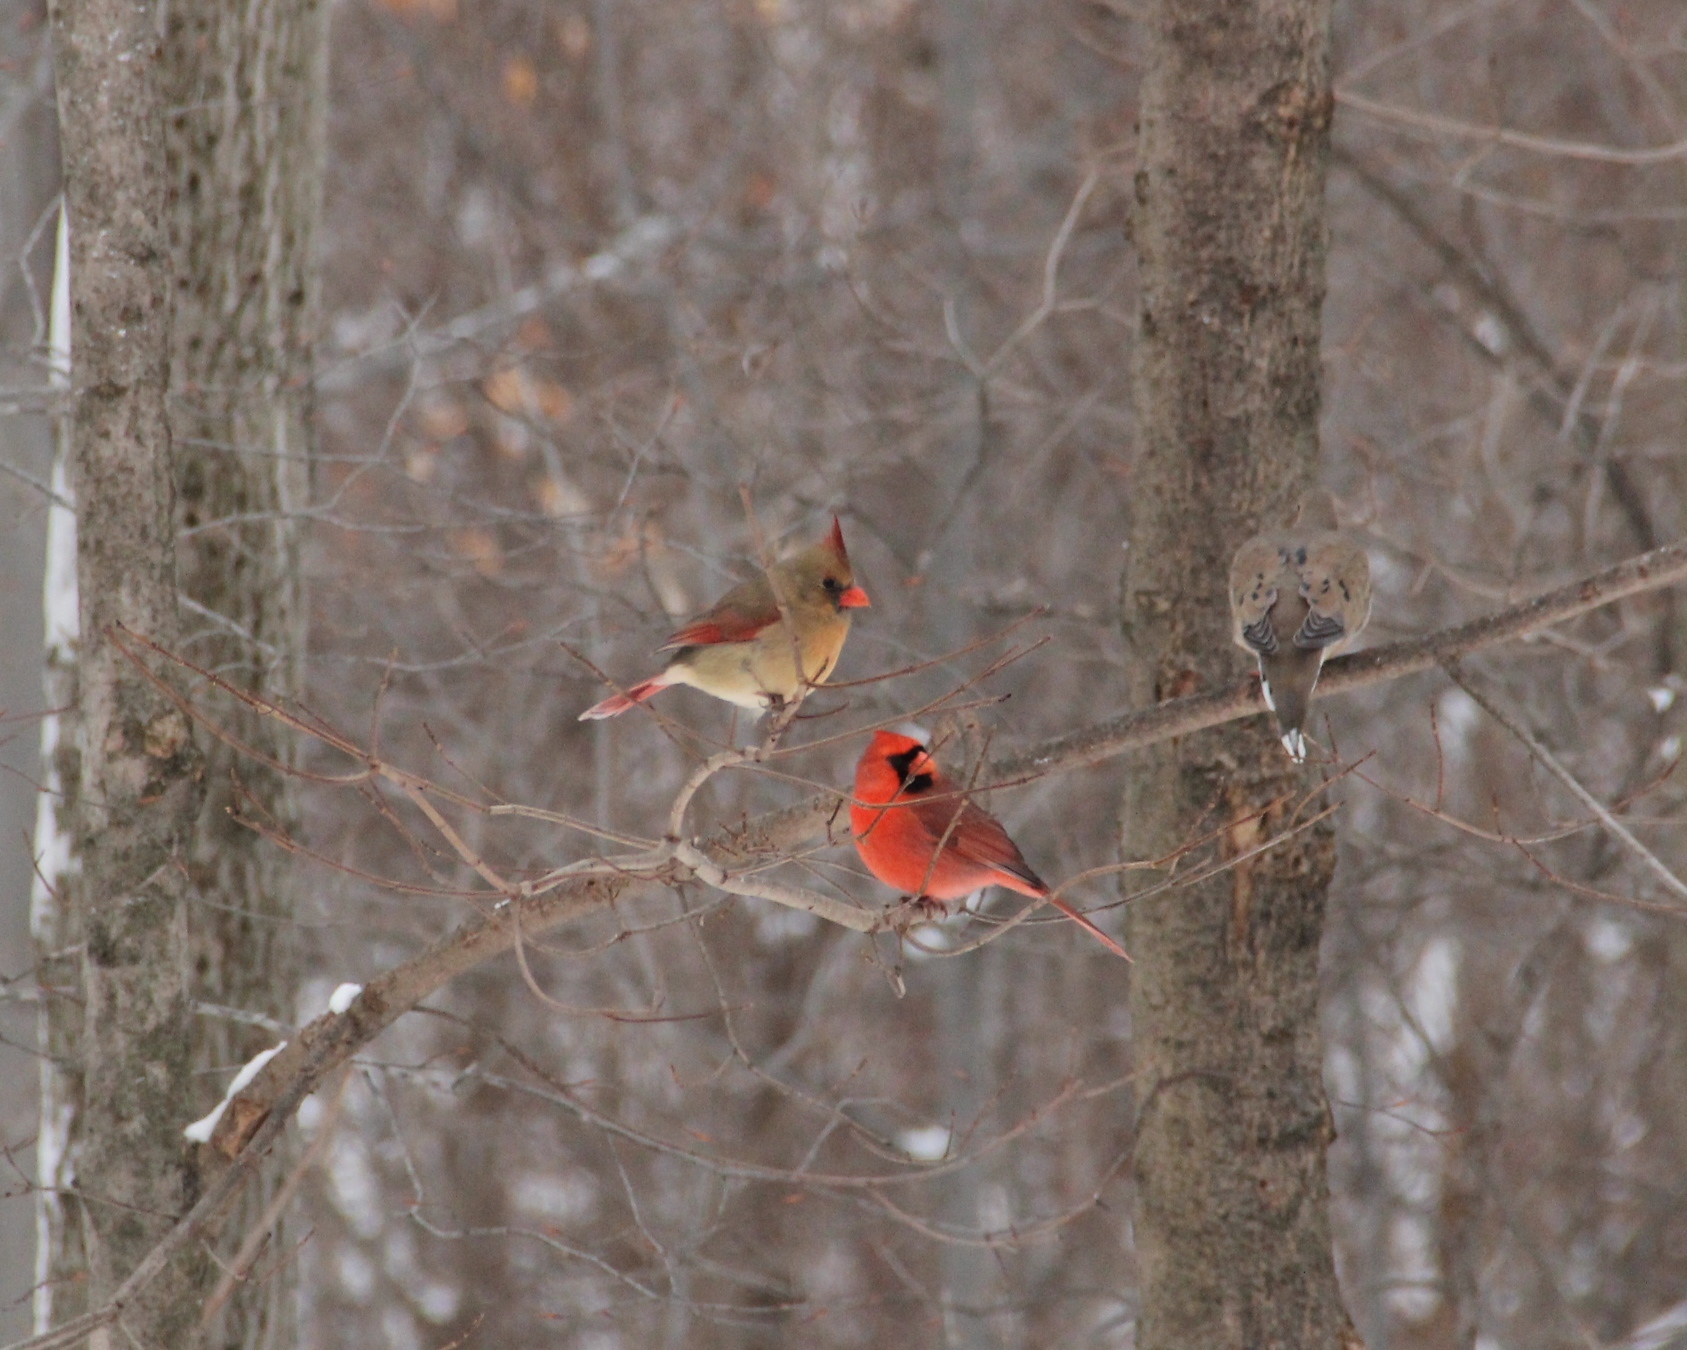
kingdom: Animalia
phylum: Chordata
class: Aves
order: Passeriformes
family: Cardinalidae
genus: Cardinalis
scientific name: Cardinalis cardinalis
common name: Northern cardinal
